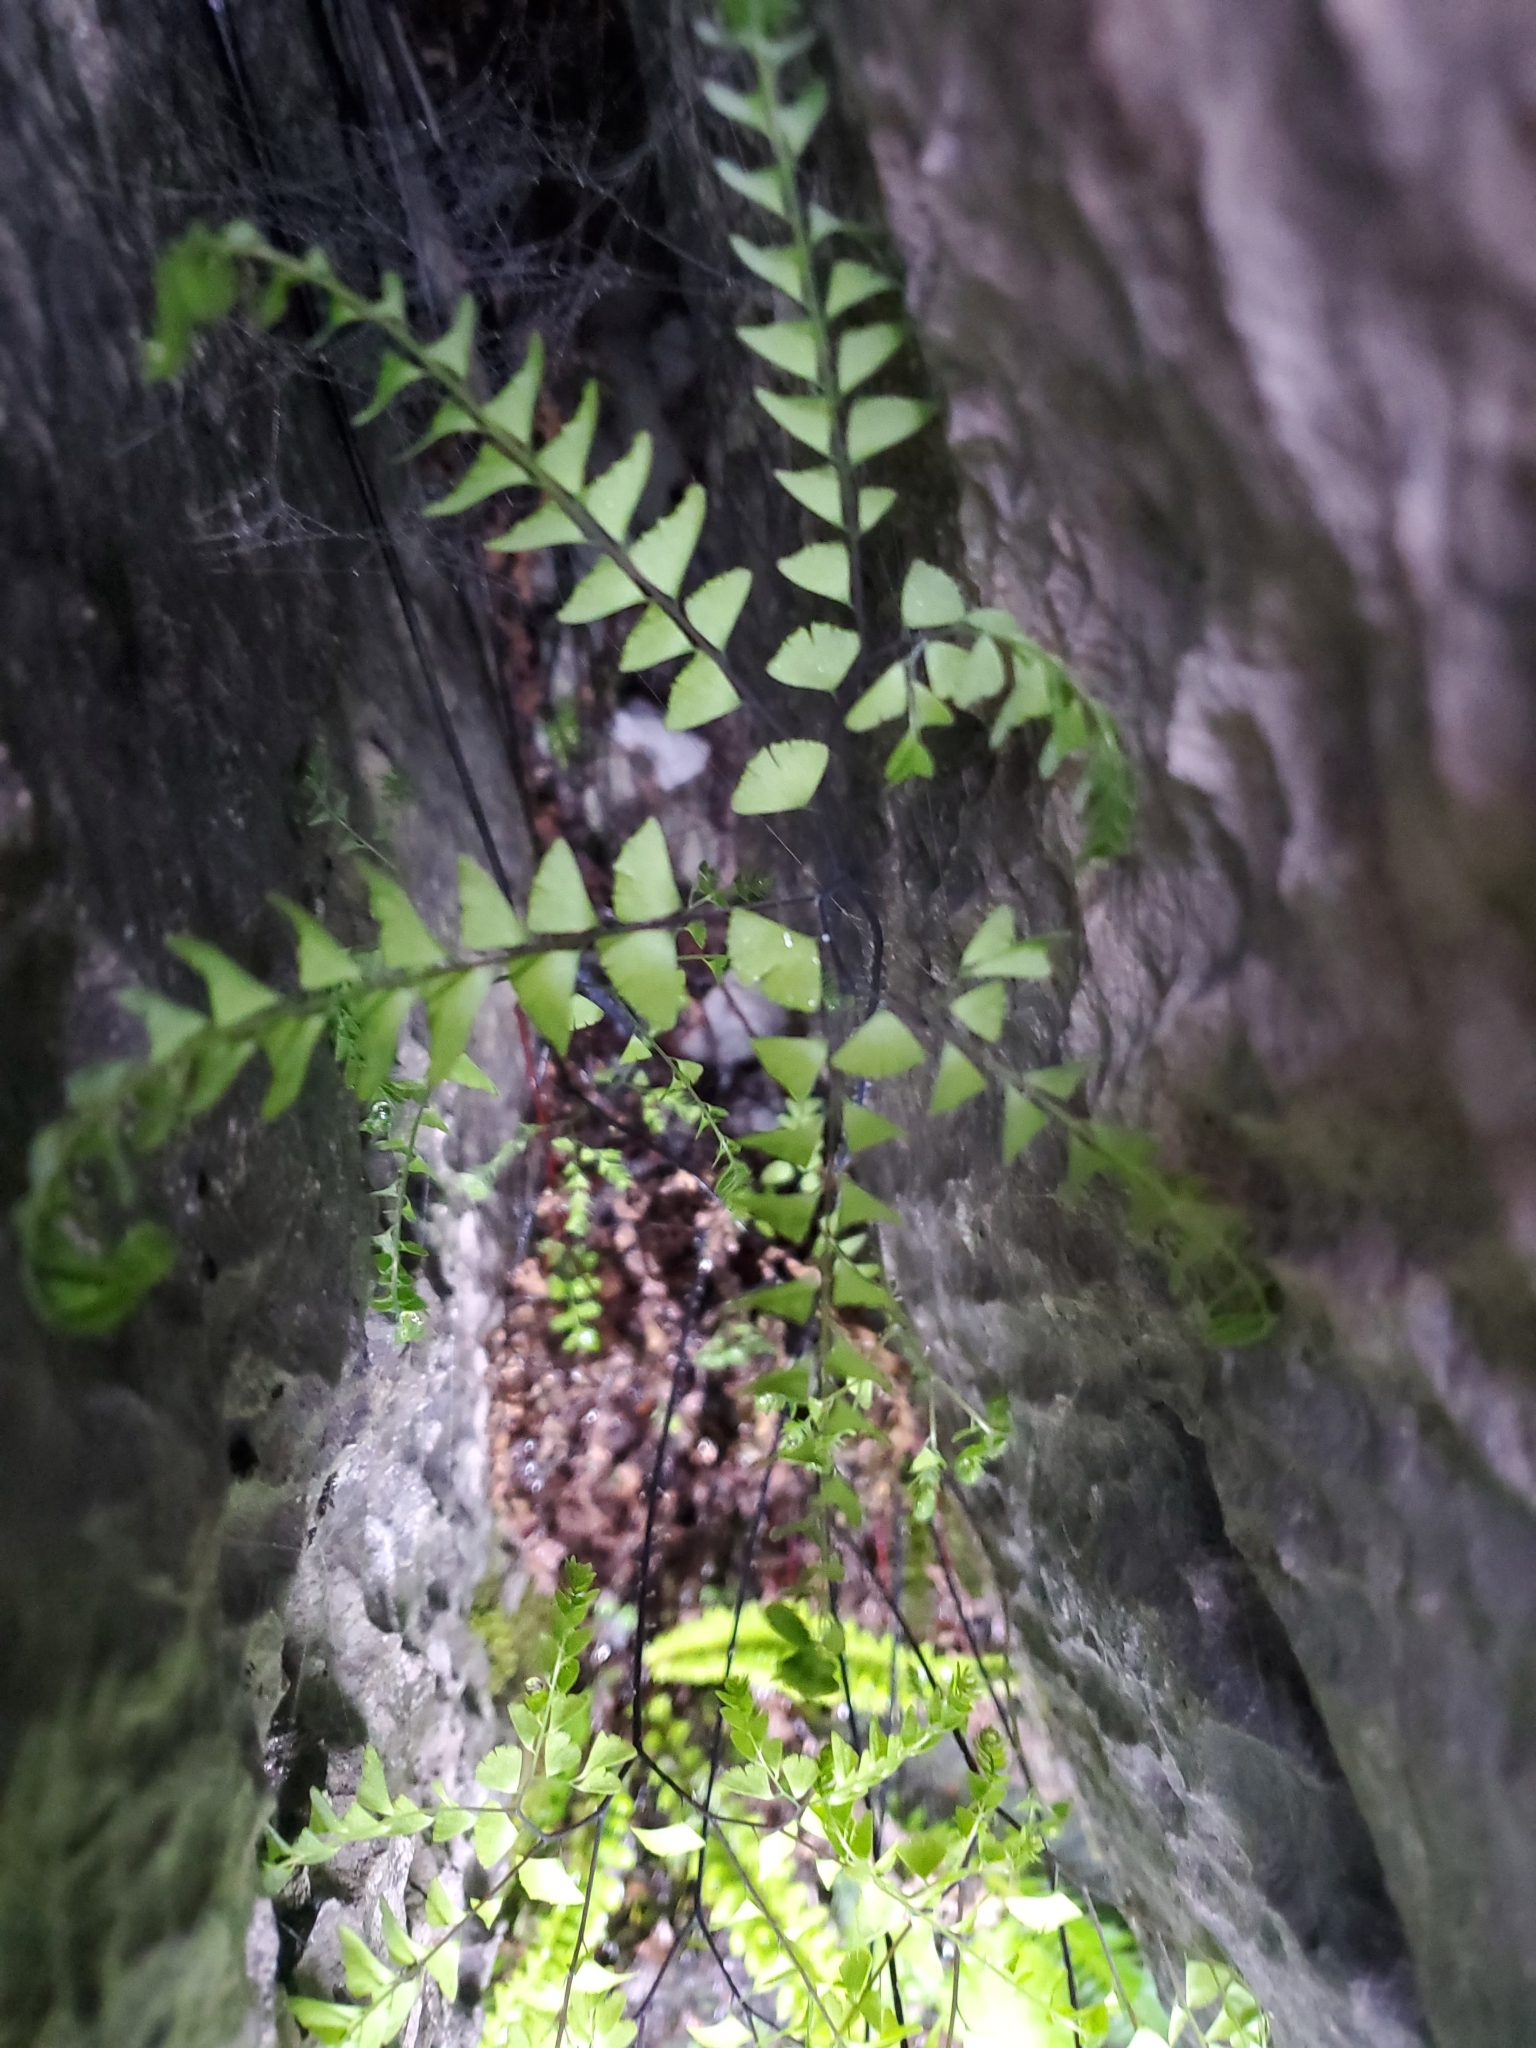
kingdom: Plantae
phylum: Tracheophyta
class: Polypodiopsida
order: Polypodiales
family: Pteridaceae
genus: Adiantum
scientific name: Adiantum aleuticum
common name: Aleutian maidenhair fern
